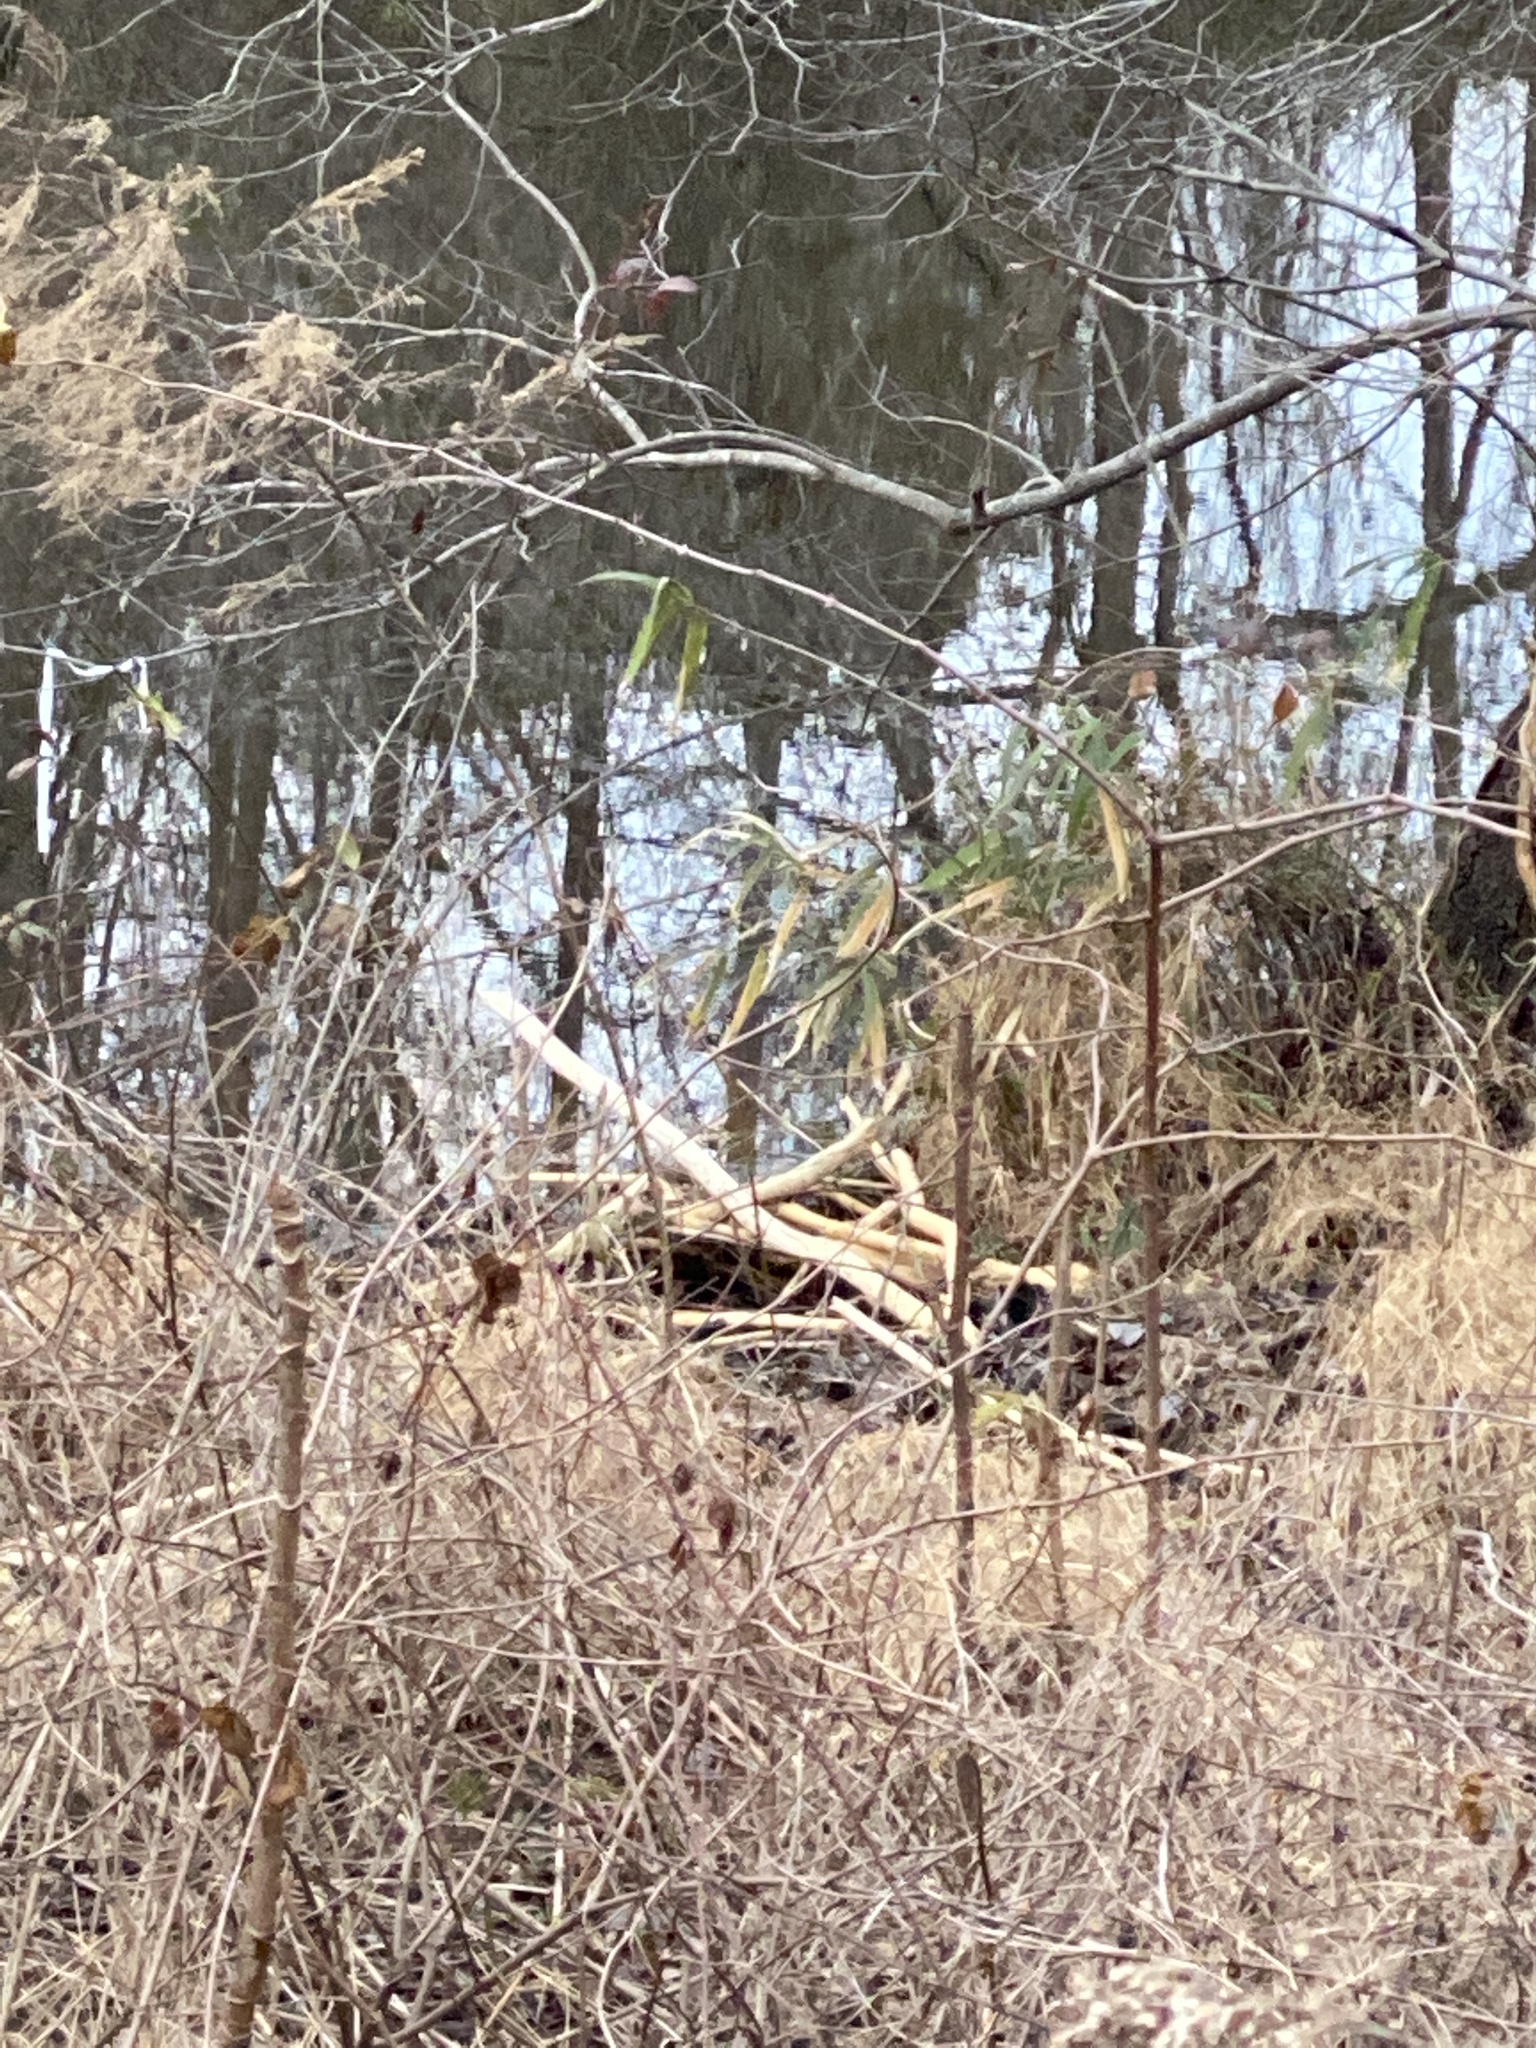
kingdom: Animalia
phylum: Chordata
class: Mammalia
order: Rodentia
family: Castoridae
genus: Castor
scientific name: Castor canadensis
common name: American beaver
